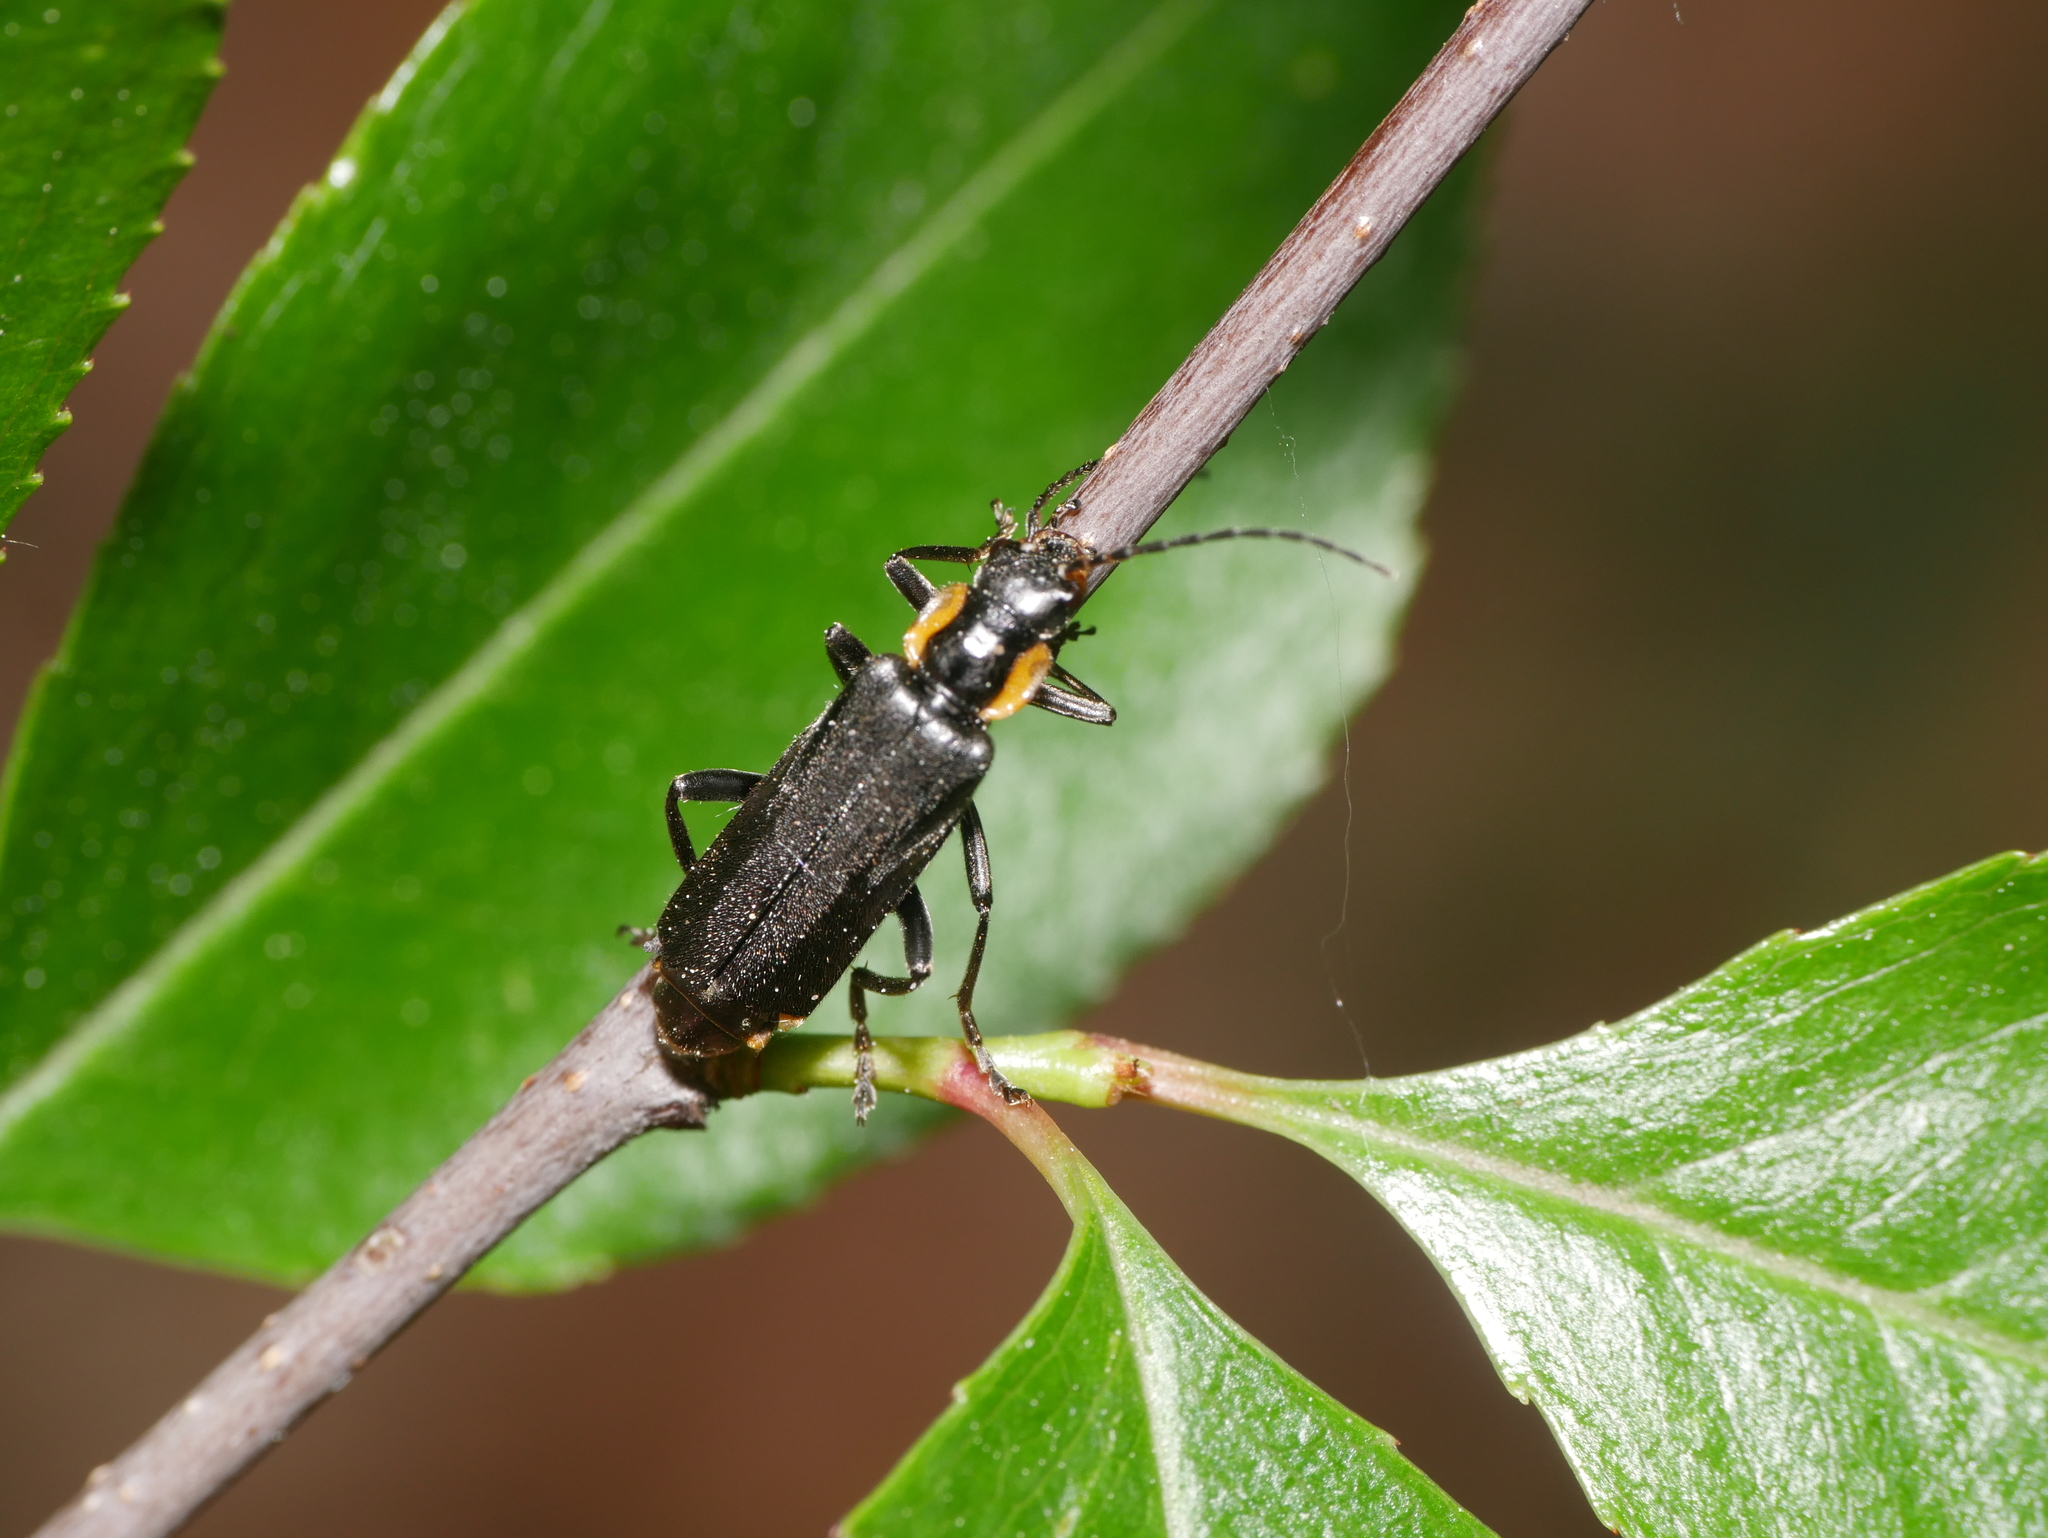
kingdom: Animalia
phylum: Arthropoda
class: Insecta
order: Coleoptera
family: Cantharidae
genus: Cantharis
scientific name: Cantharis obscura
